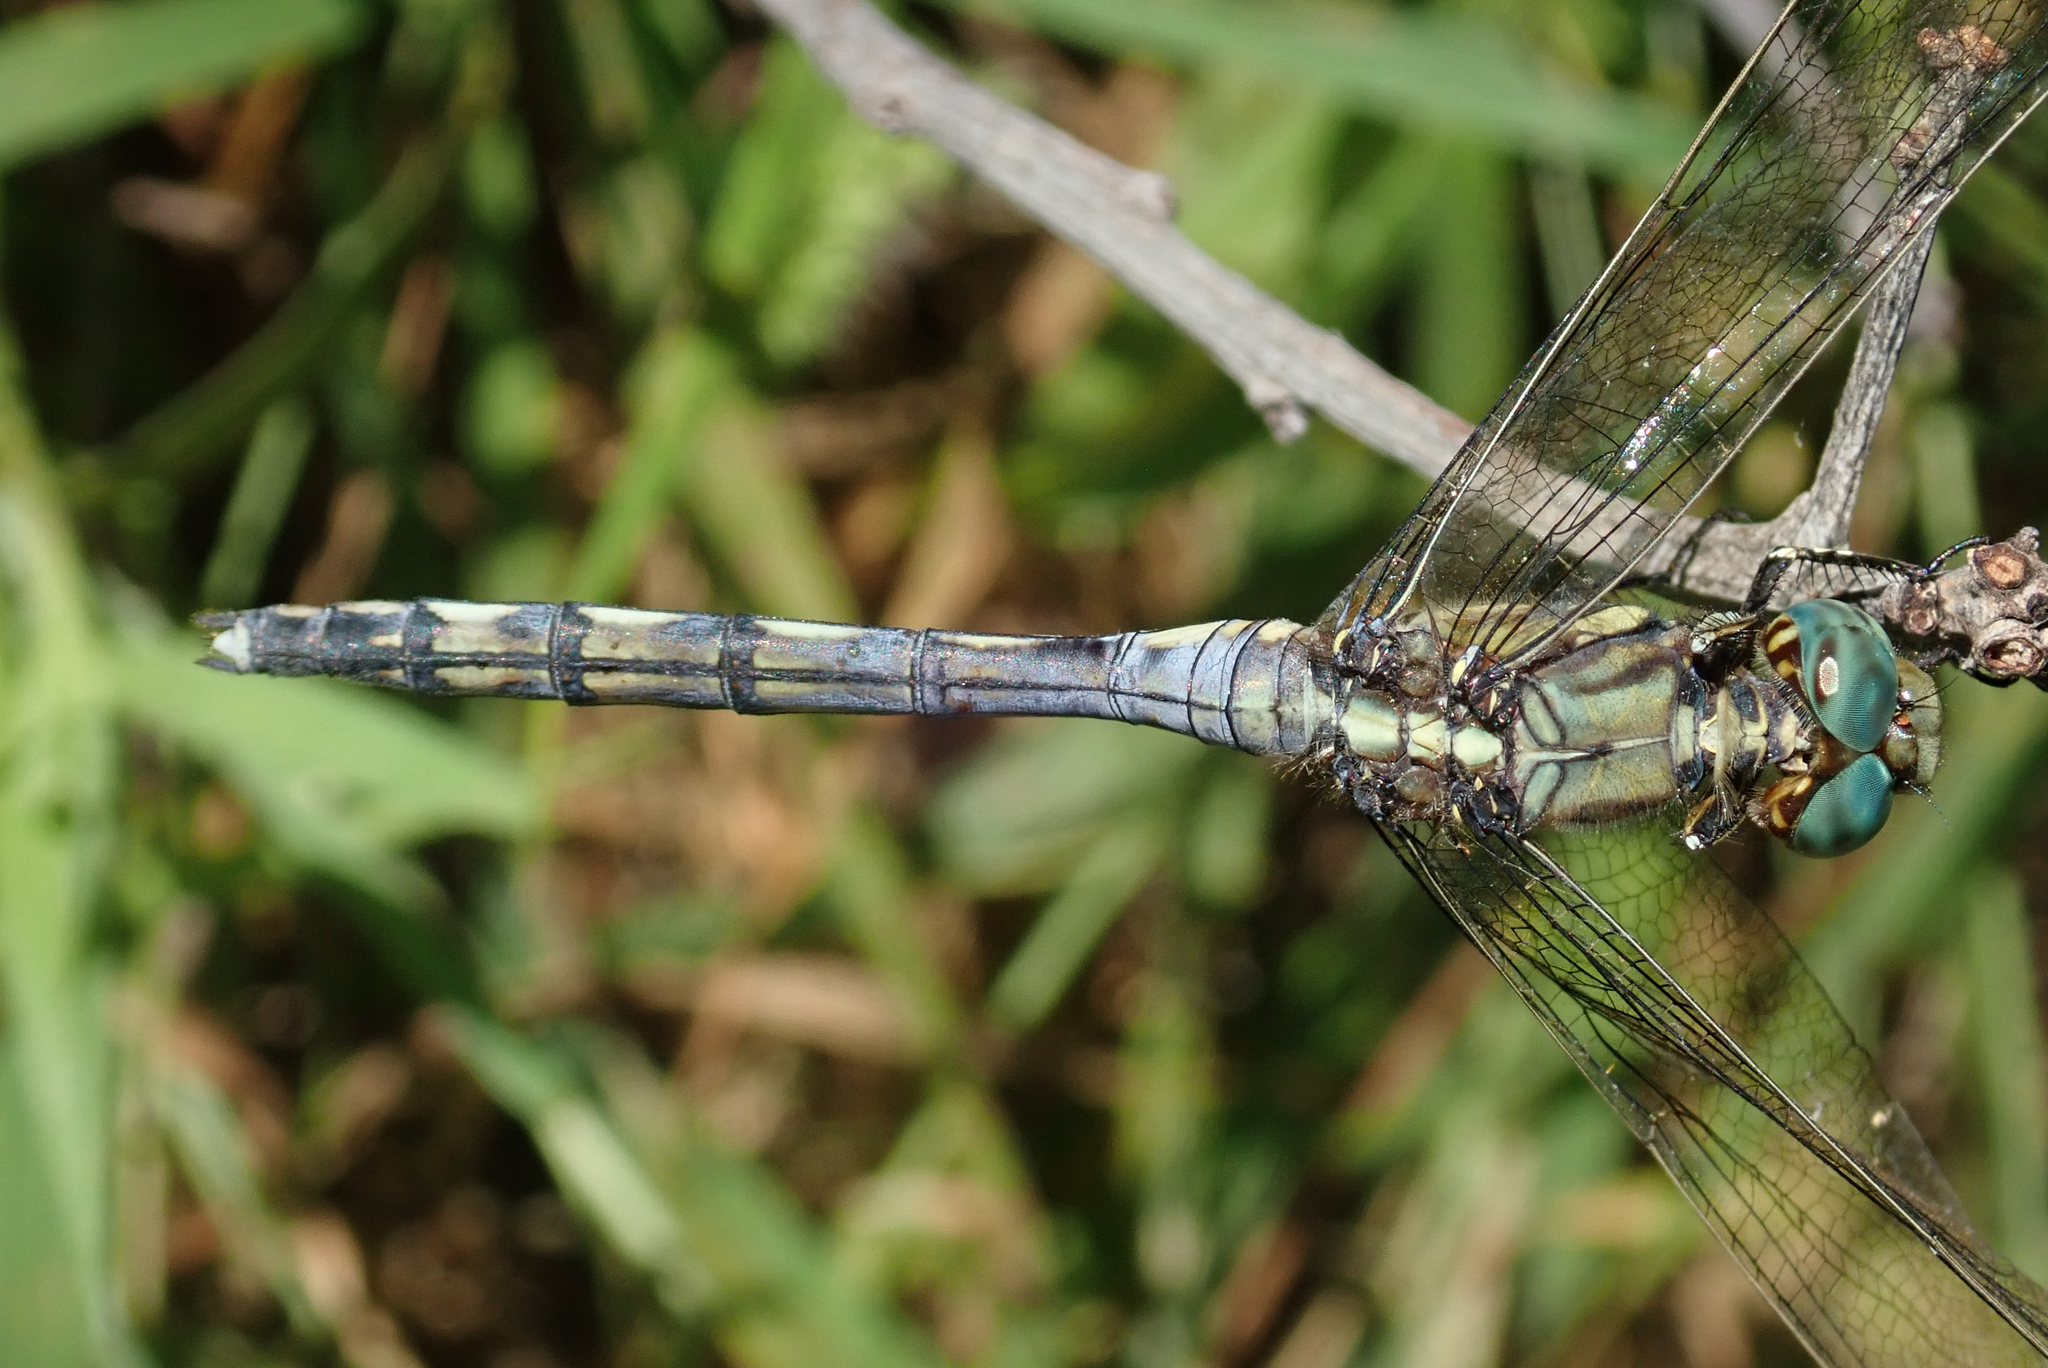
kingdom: Animalia
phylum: Arthropoda
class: Insecta
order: Odonata
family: Libellulidae
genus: Orthetrum
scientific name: Orthetrum brachiale
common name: Banded skimmer
